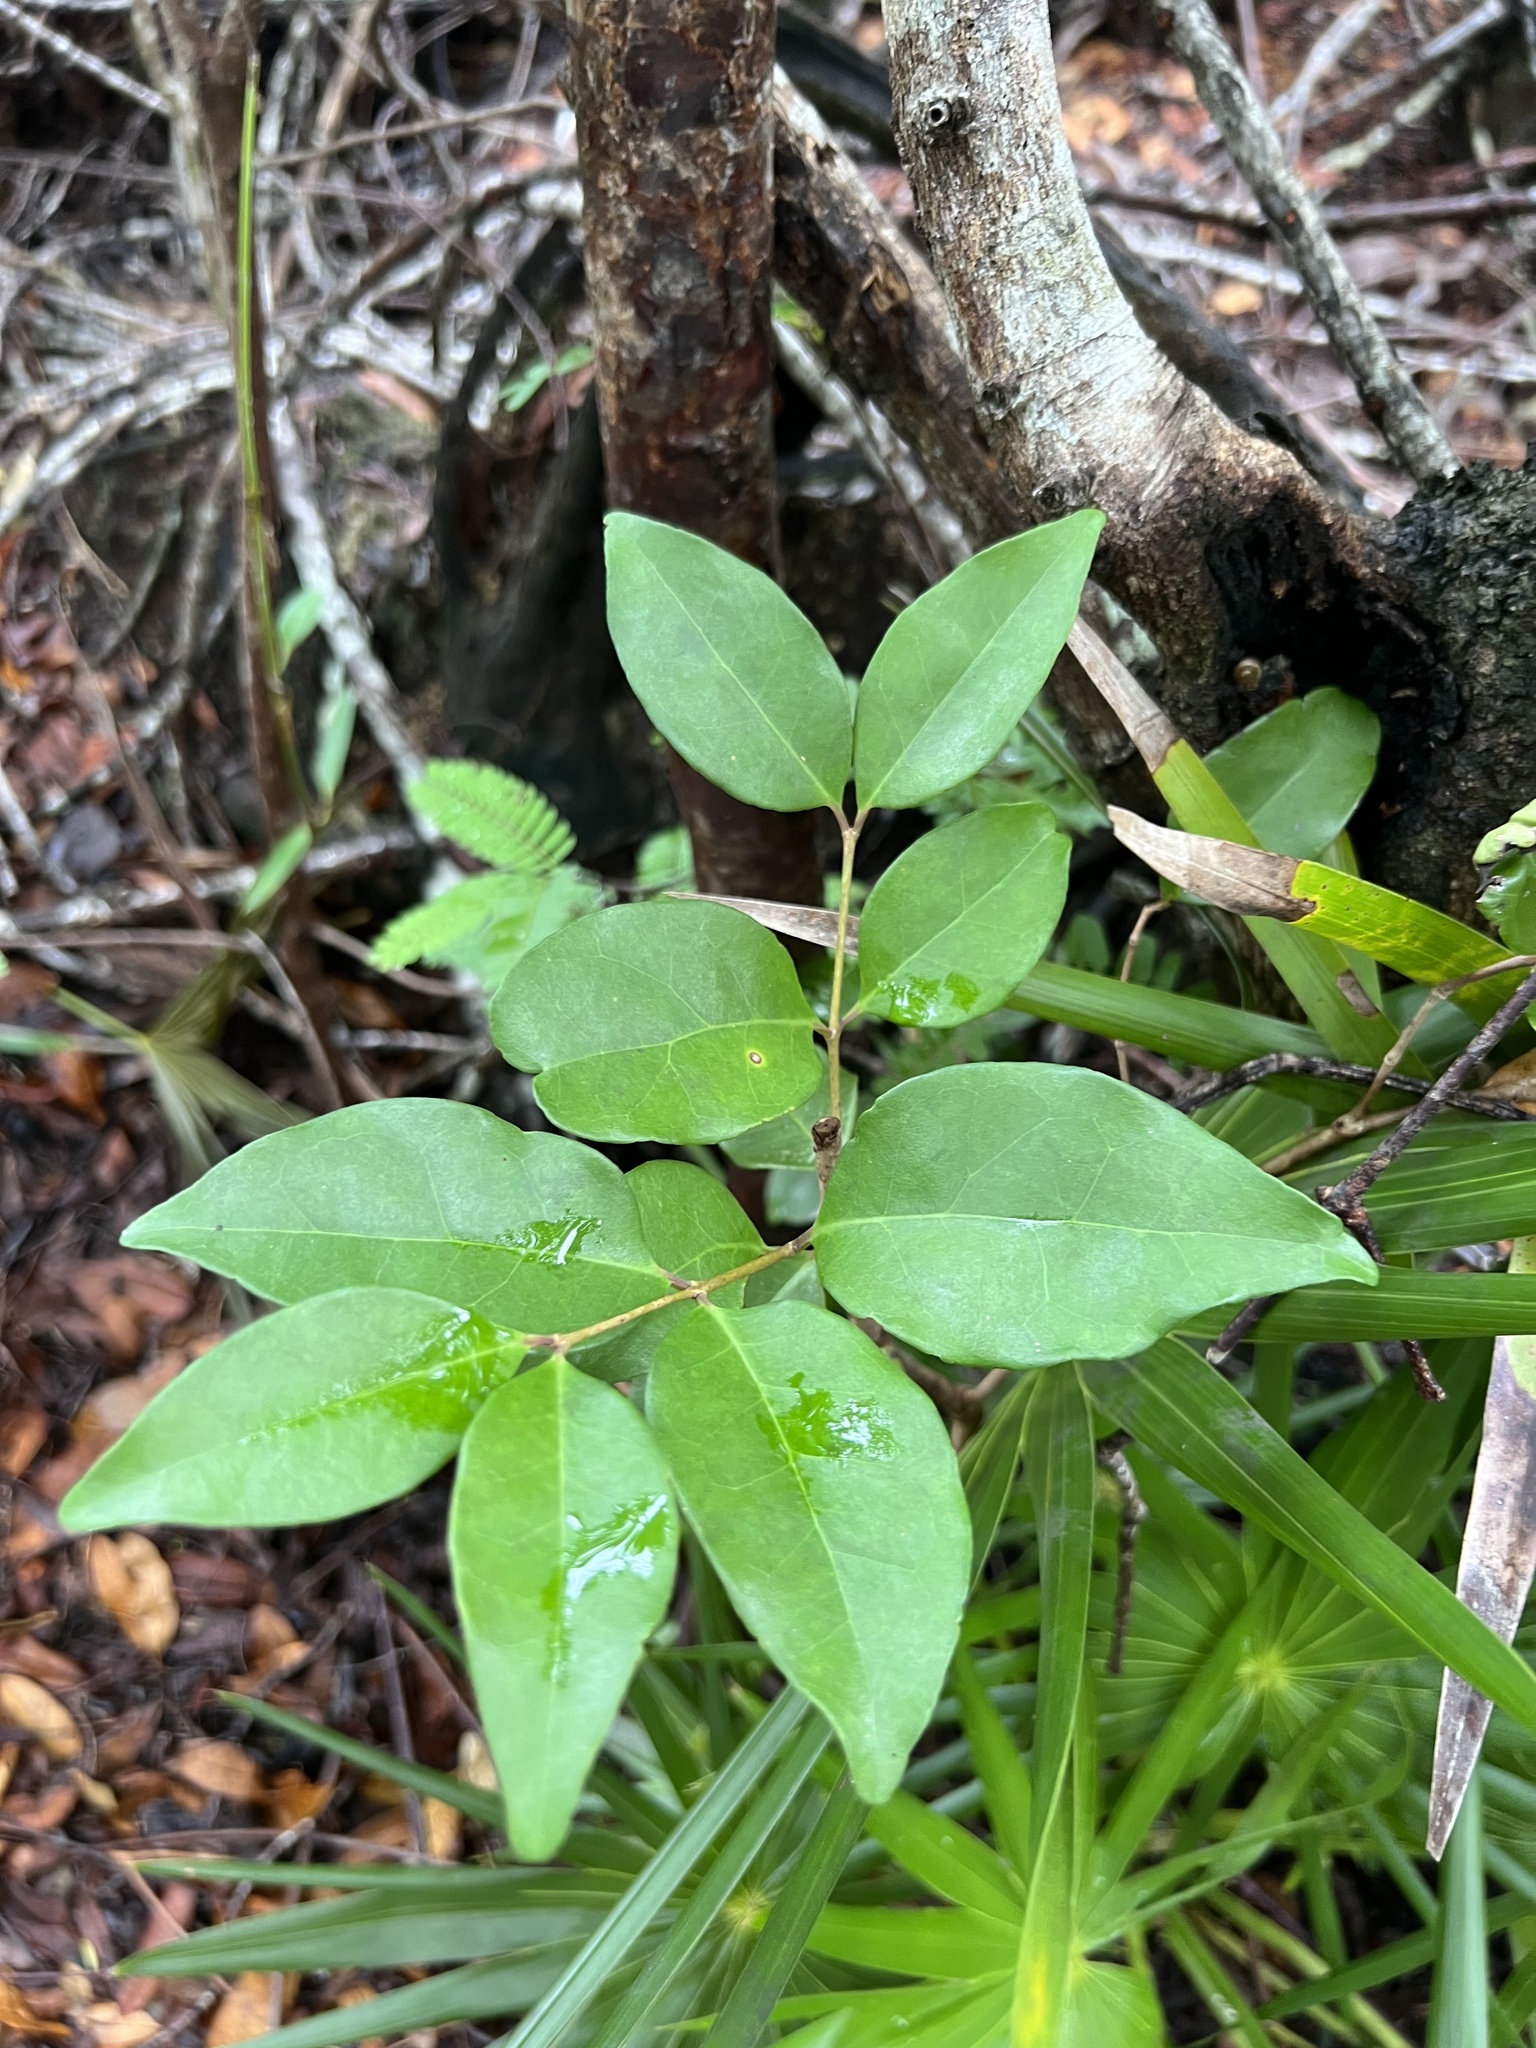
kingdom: Plantae
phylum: Tracheophyta
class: Magnoliopsida
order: Myrtales
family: Myrtaceae
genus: Eugenia
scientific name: Eugenia axillaris
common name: Choaky berry
